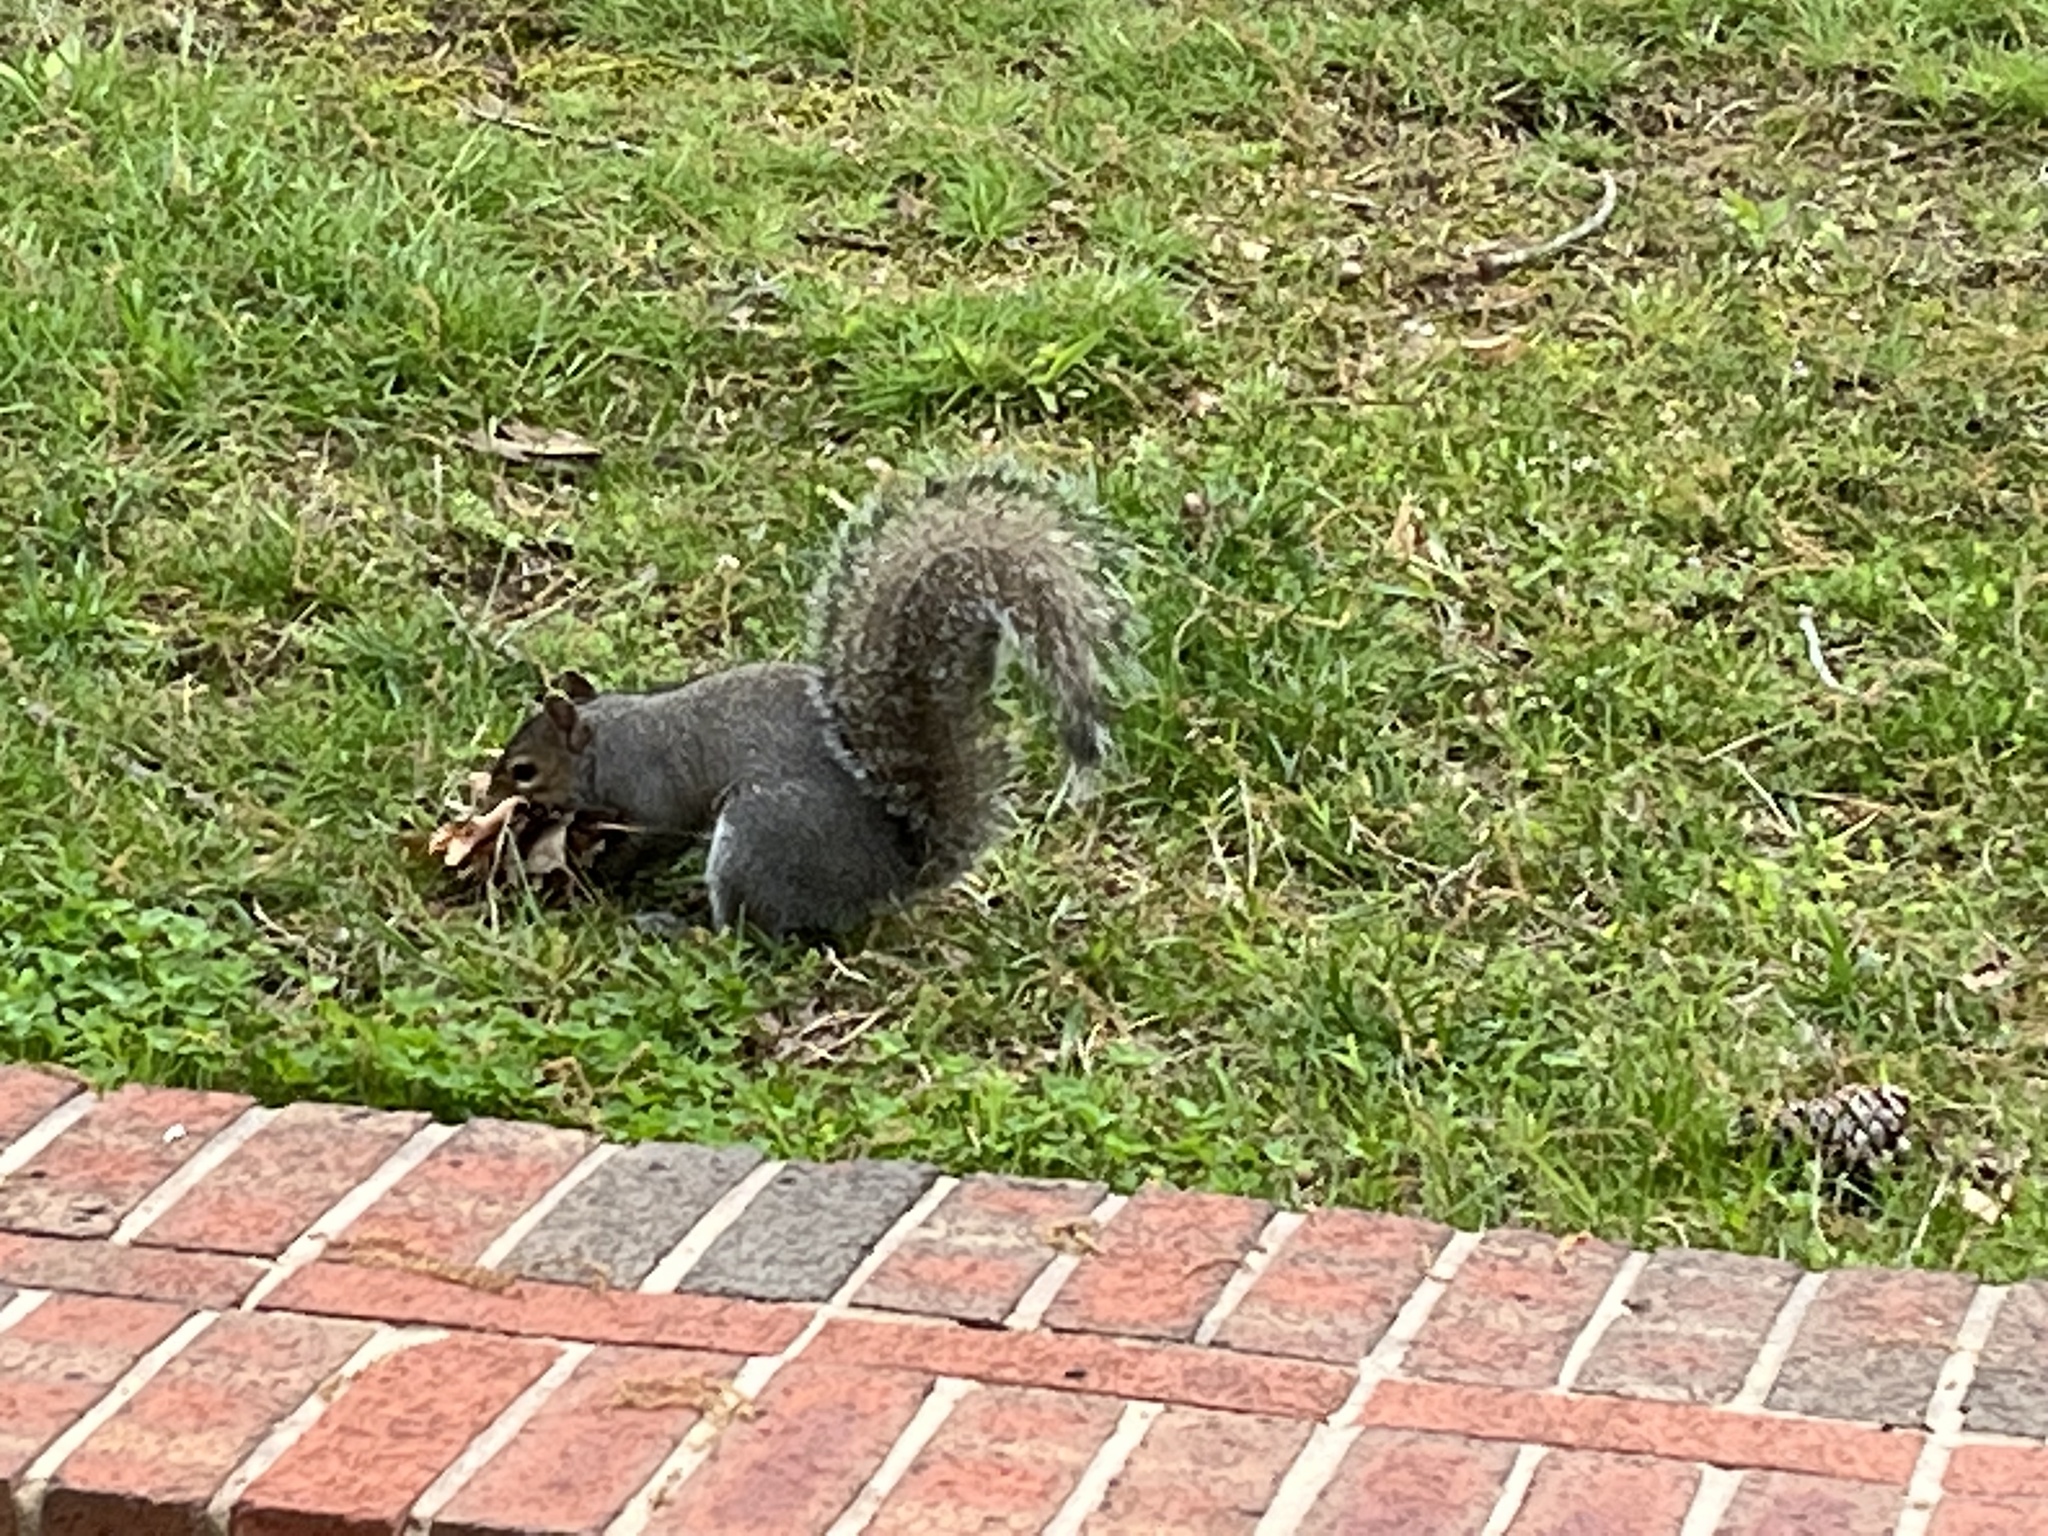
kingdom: Animalia
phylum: Chordata
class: Mammalia
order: Rodentia
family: Sciuridae
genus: Sciurus
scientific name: Sciurus carolinensis
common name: Eastern gray squirrel
